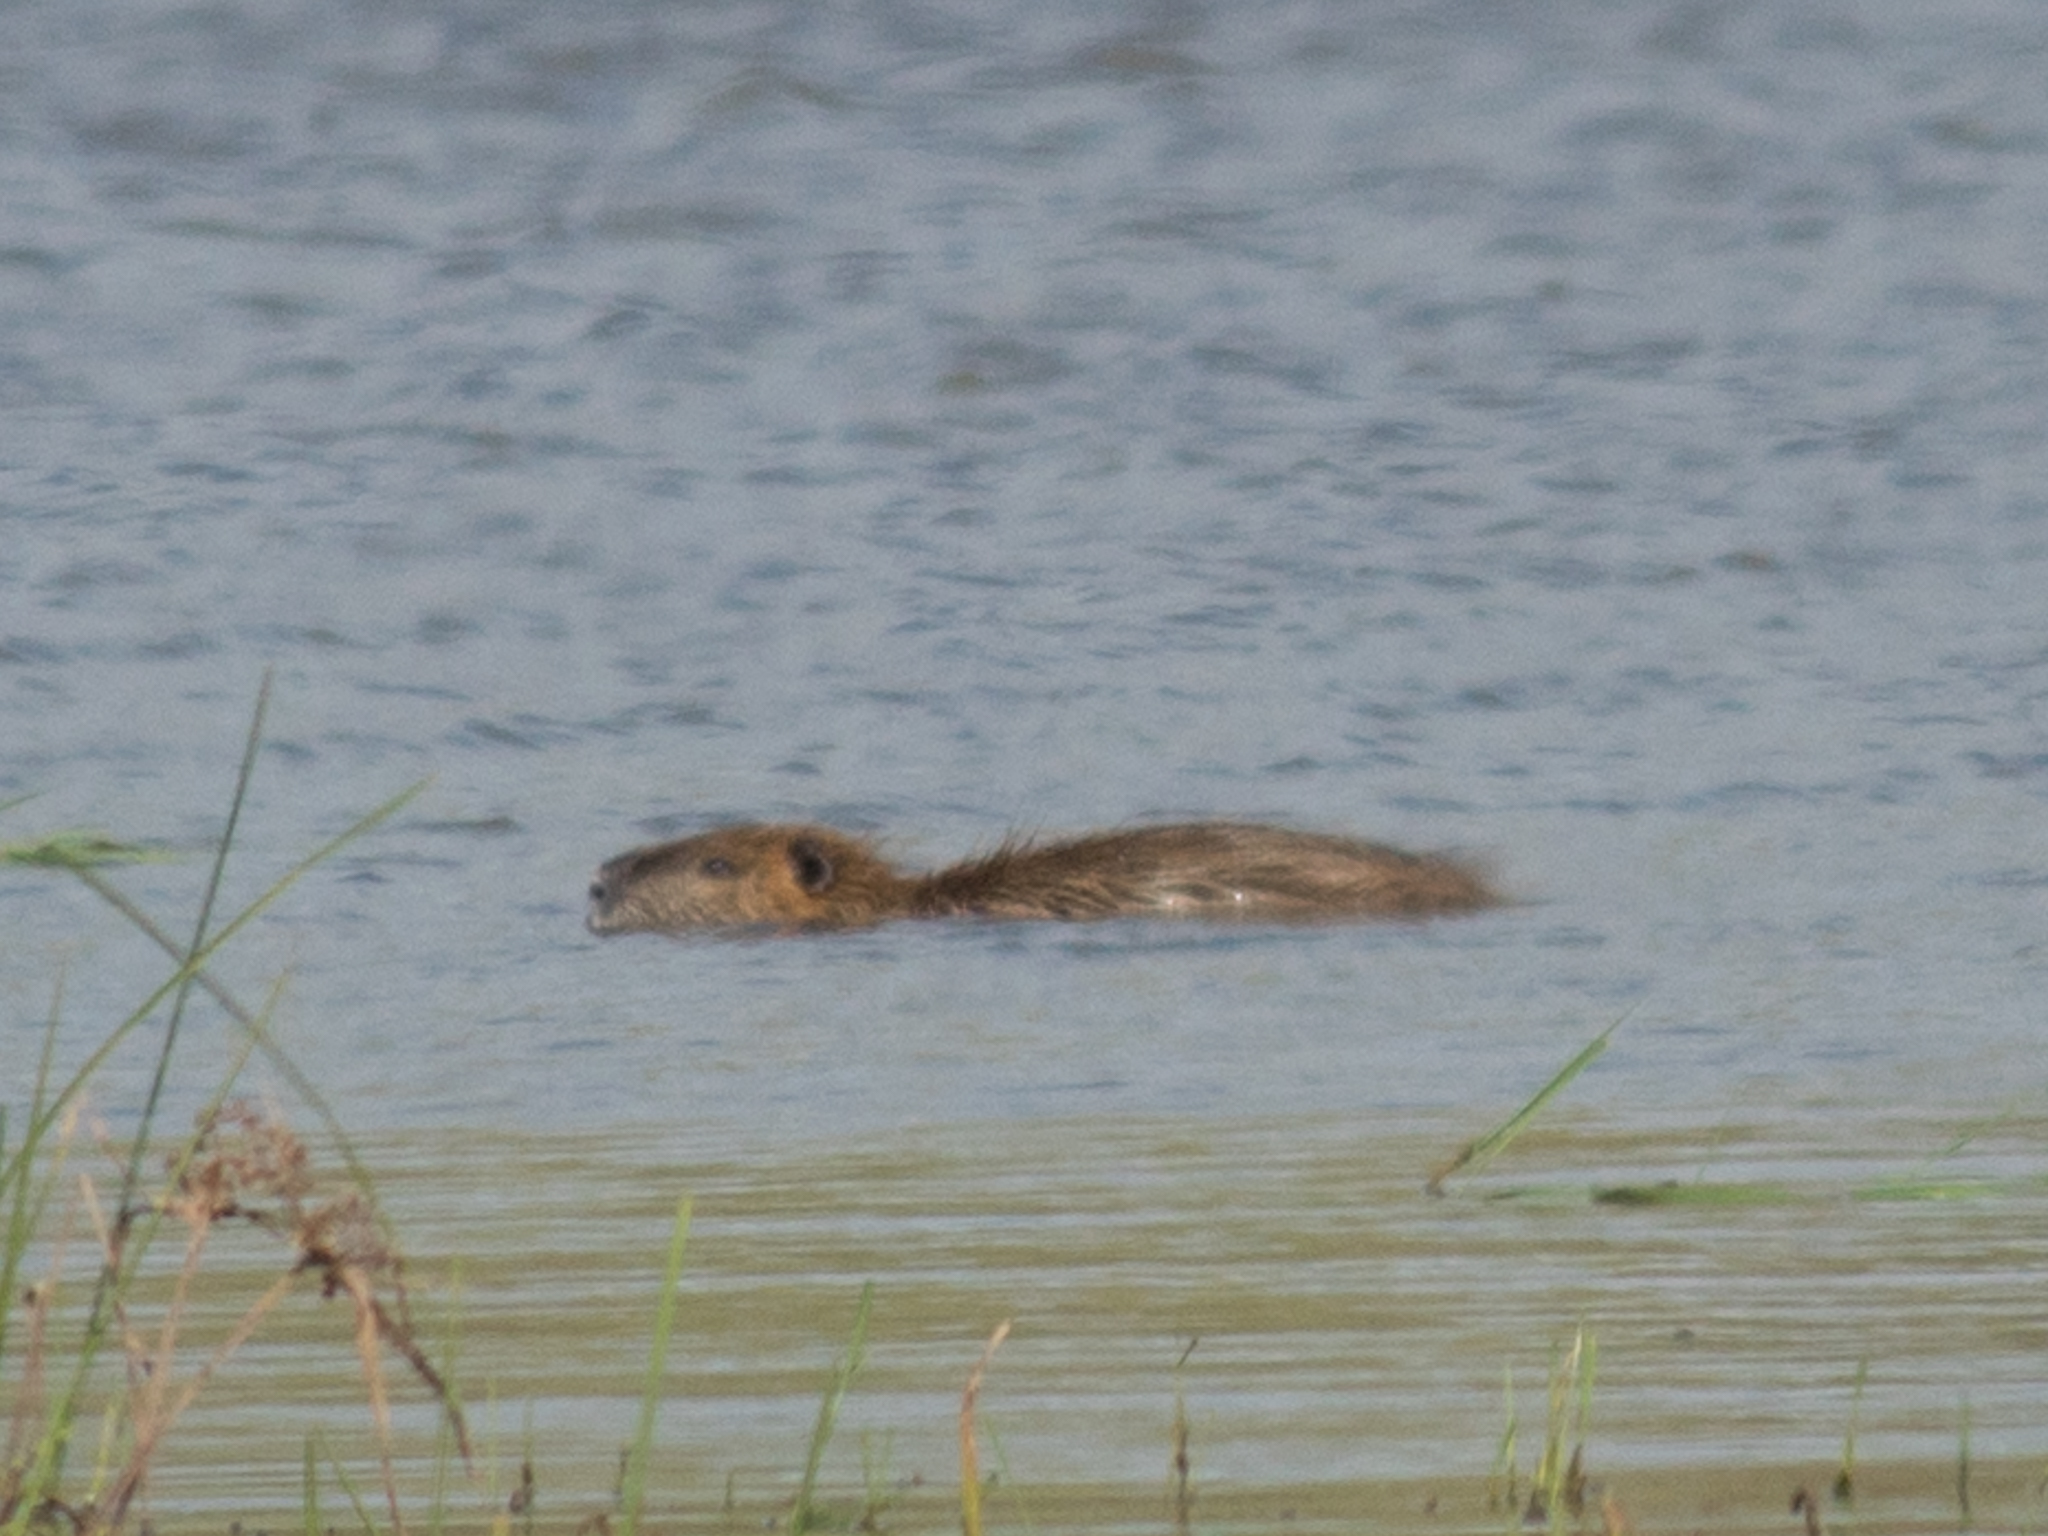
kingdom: Animalia
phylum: Chordata
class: Mammalia
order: Rodentia
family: Myocastoridae
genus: Myocastor
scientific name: Myocastor coypus
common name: Coypu
